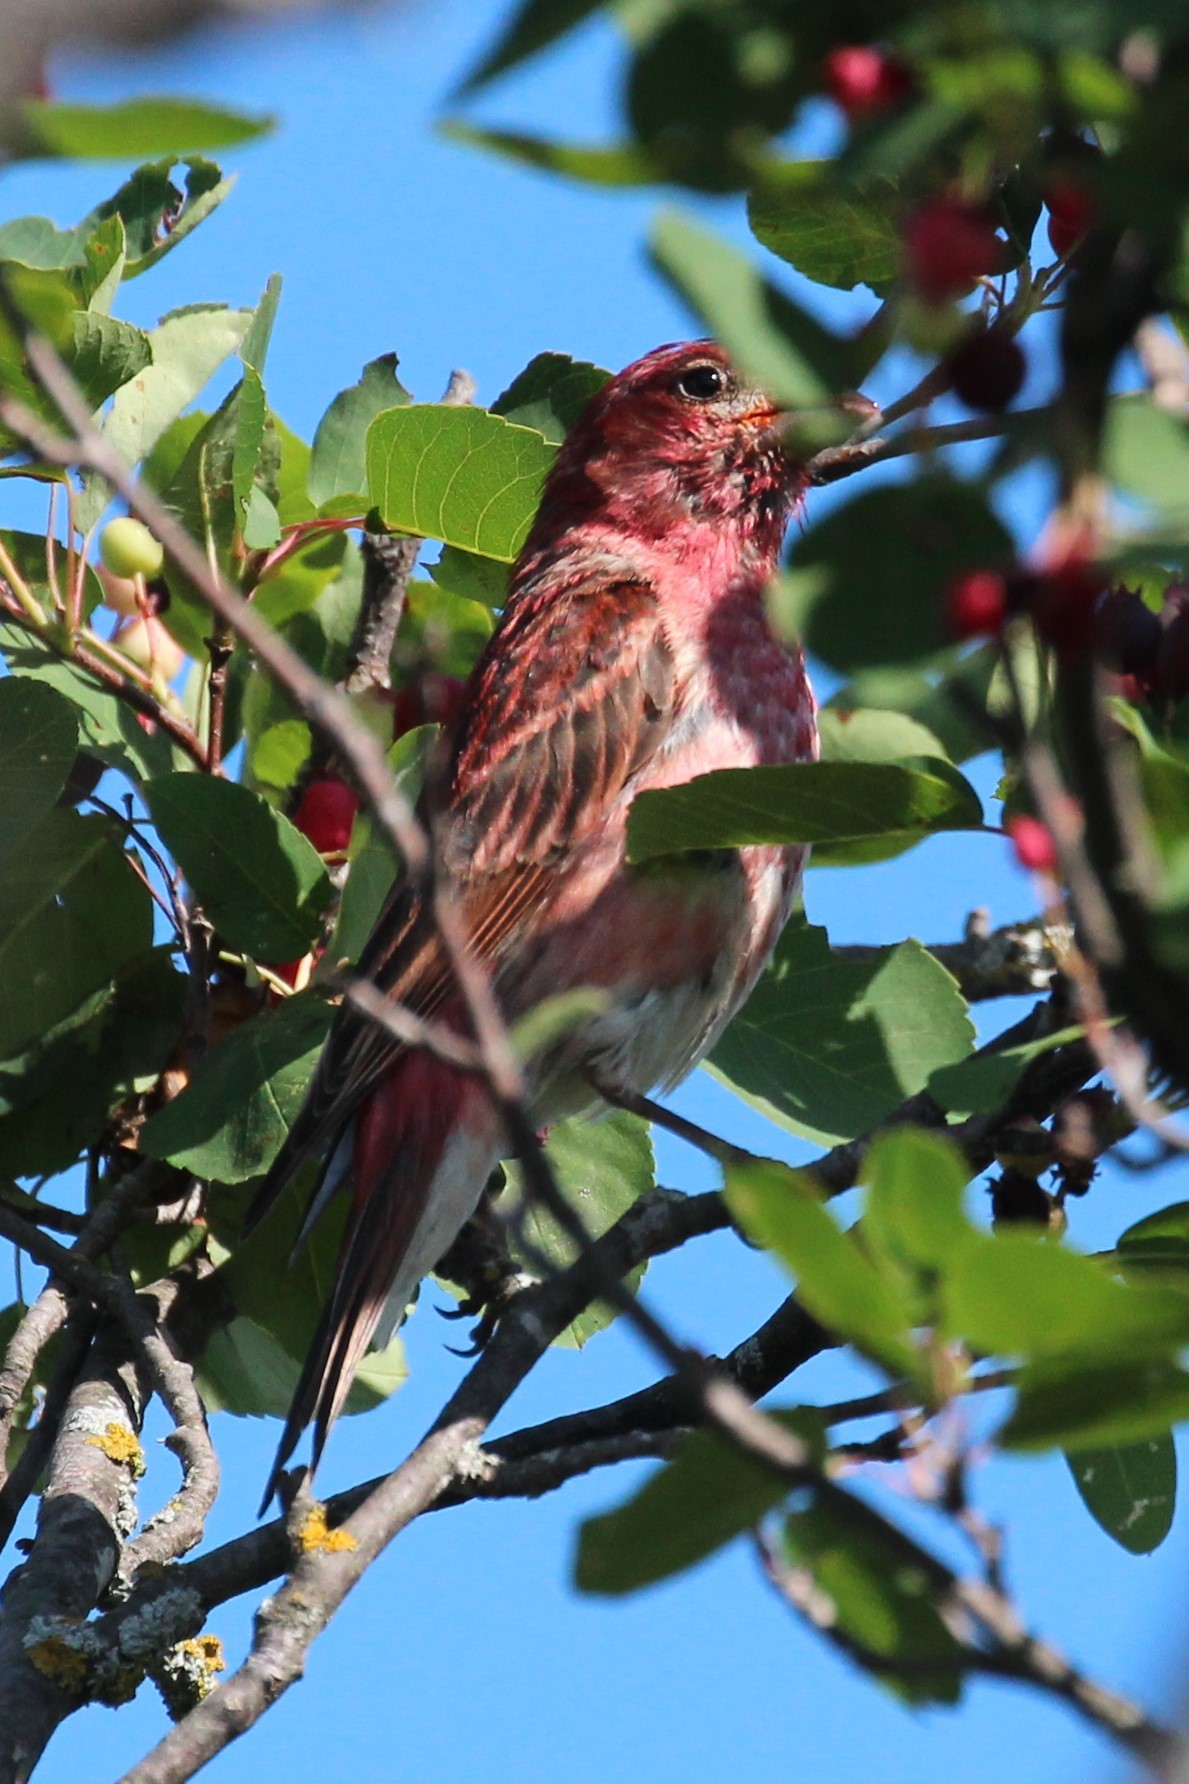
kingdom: Animalia
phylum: Chordata
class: Aves
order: Passeriformes
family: Fringillidae
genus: Haemorhous
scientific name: Haemorhous purpureus
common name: Purple finch
